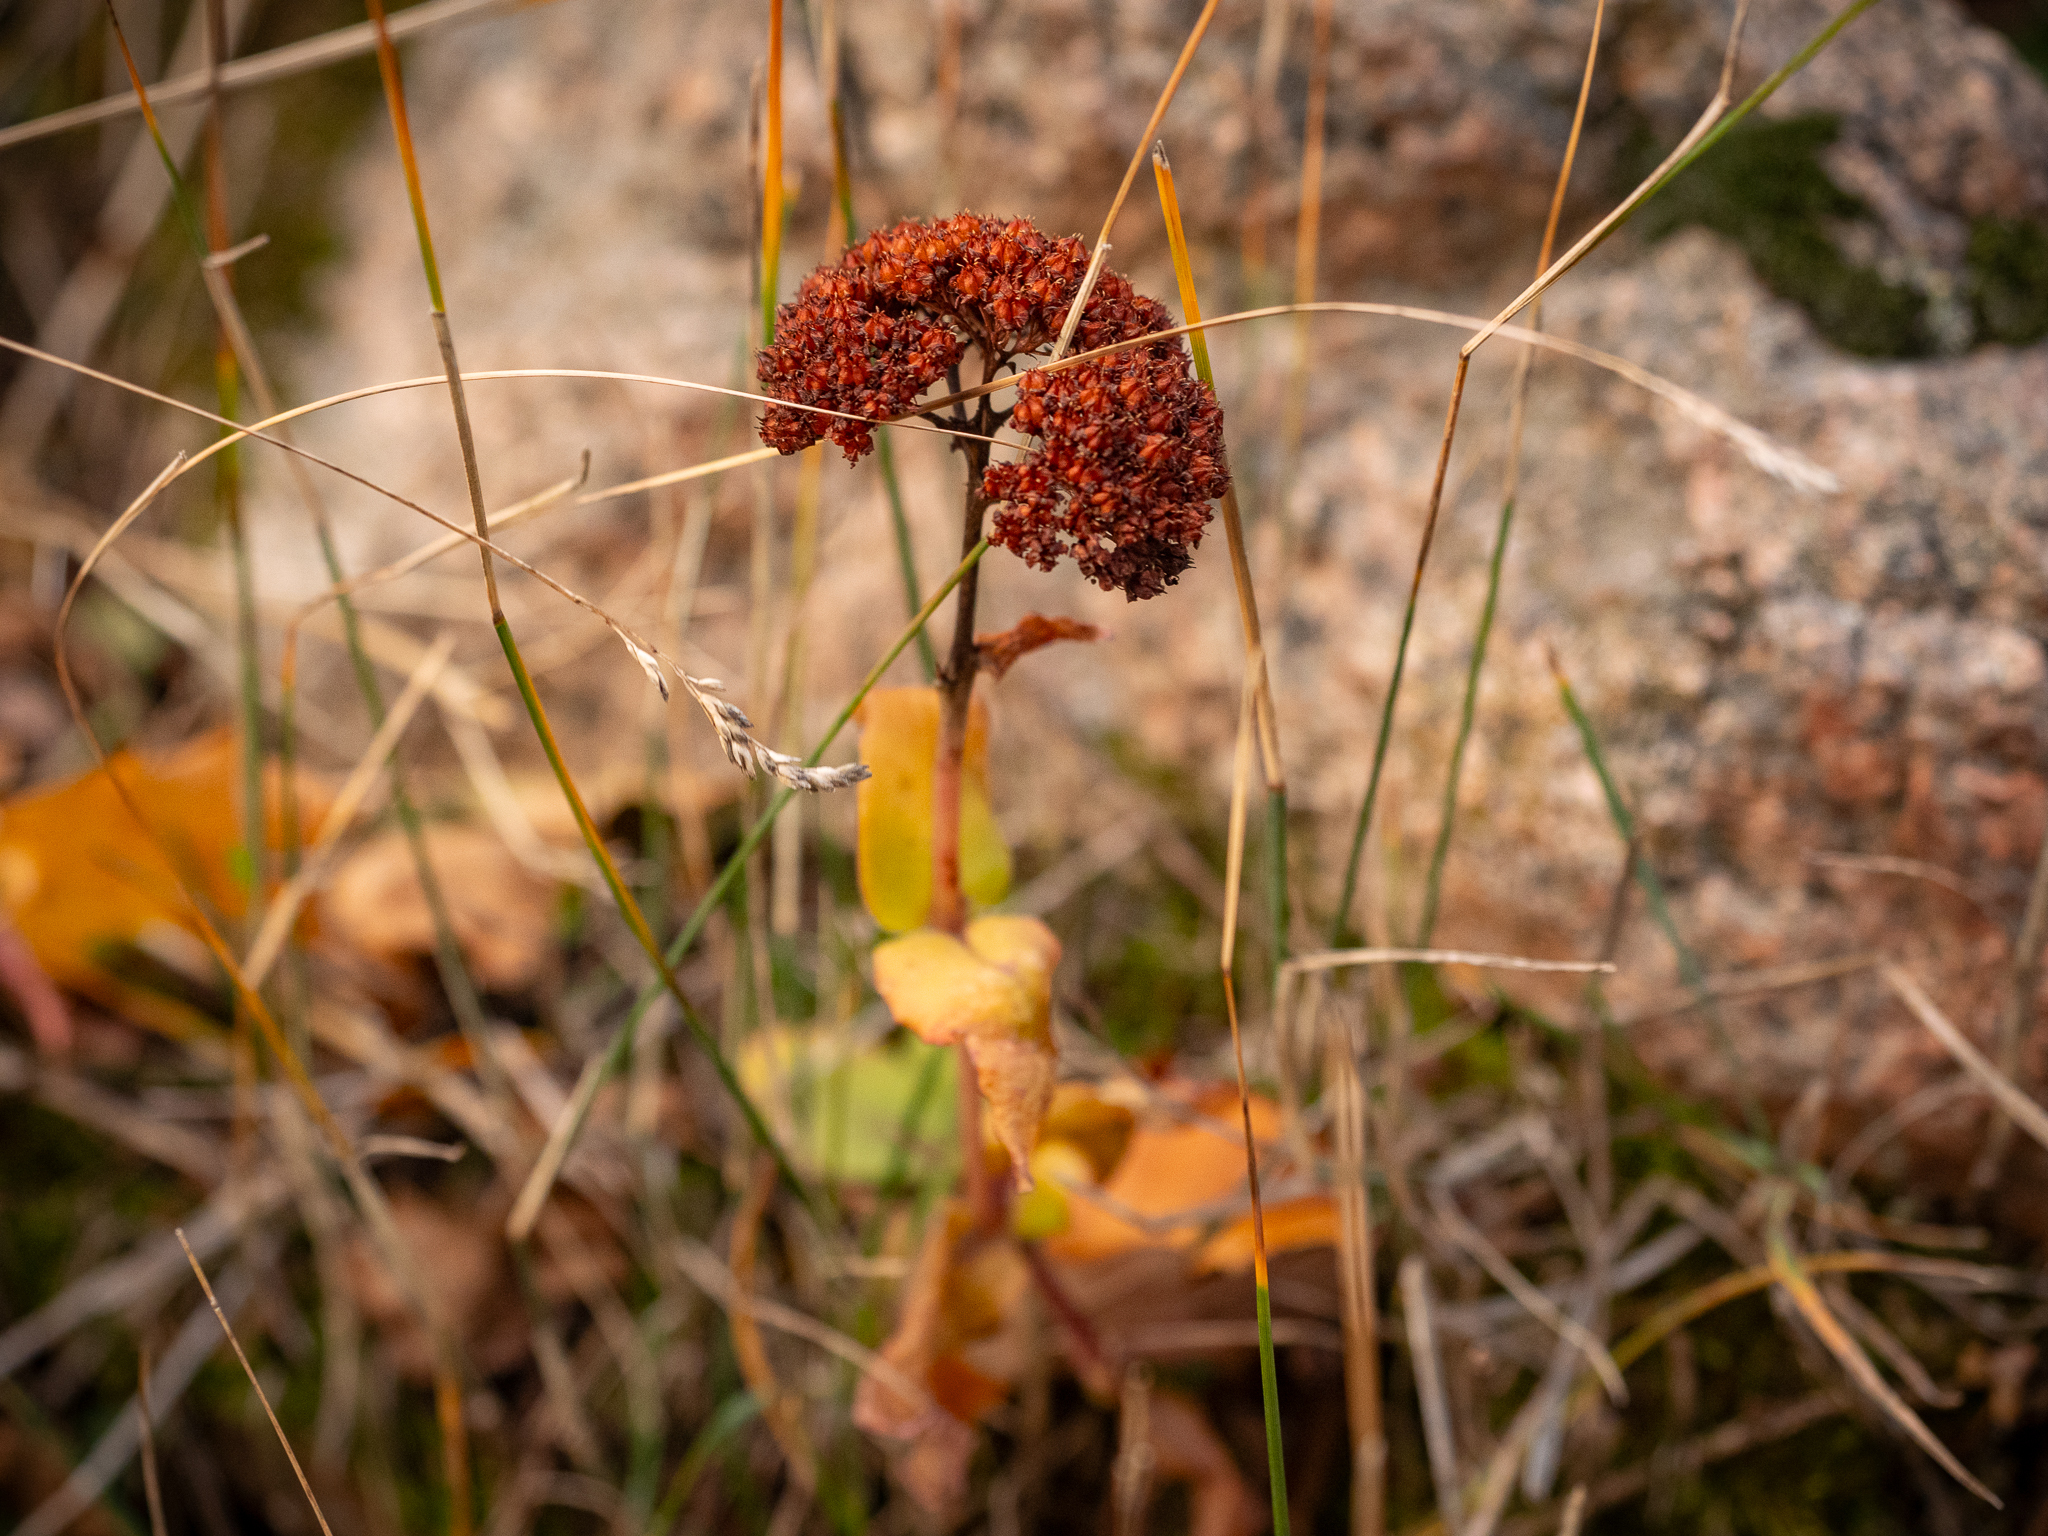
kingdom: Plantae
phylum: Tracheophyta
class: Magnoliopsida
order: Saxifragales
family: Crassulaceae
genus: Hylotelephium
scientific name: Hylotelephium maximum
